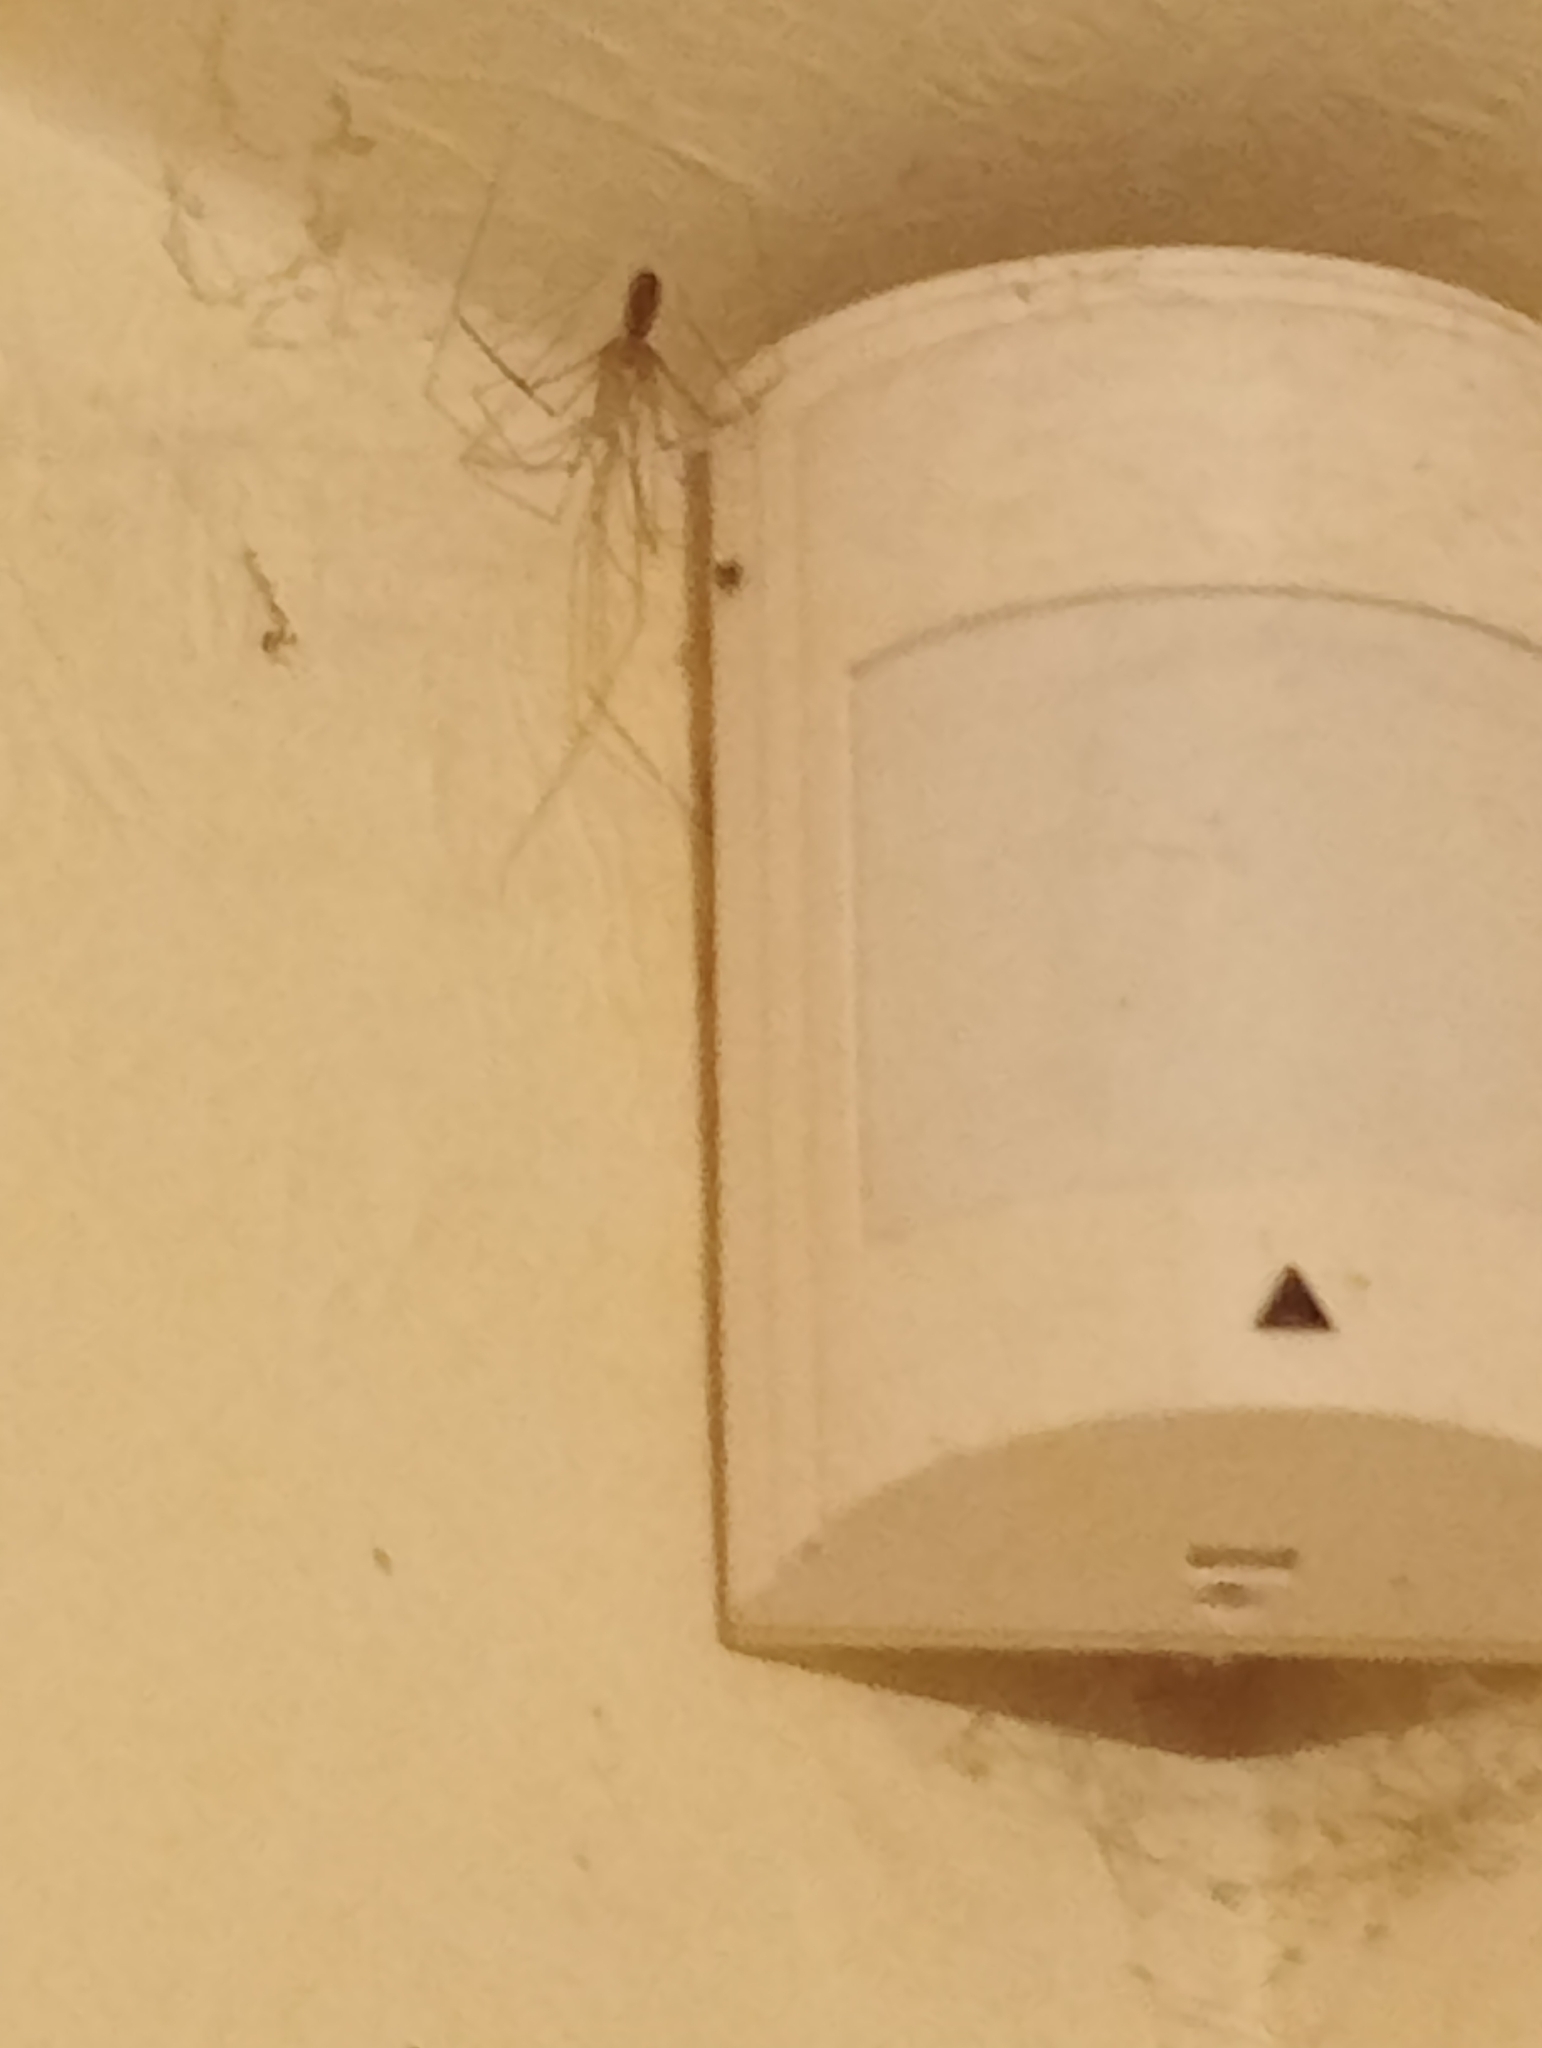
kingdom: Animalia
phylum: Arthropoda
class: Arachnida
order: Araneae
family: Pholcidae
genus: Pholcus
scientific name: Pholcus phalangioides
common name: Longbodied cellar spider
